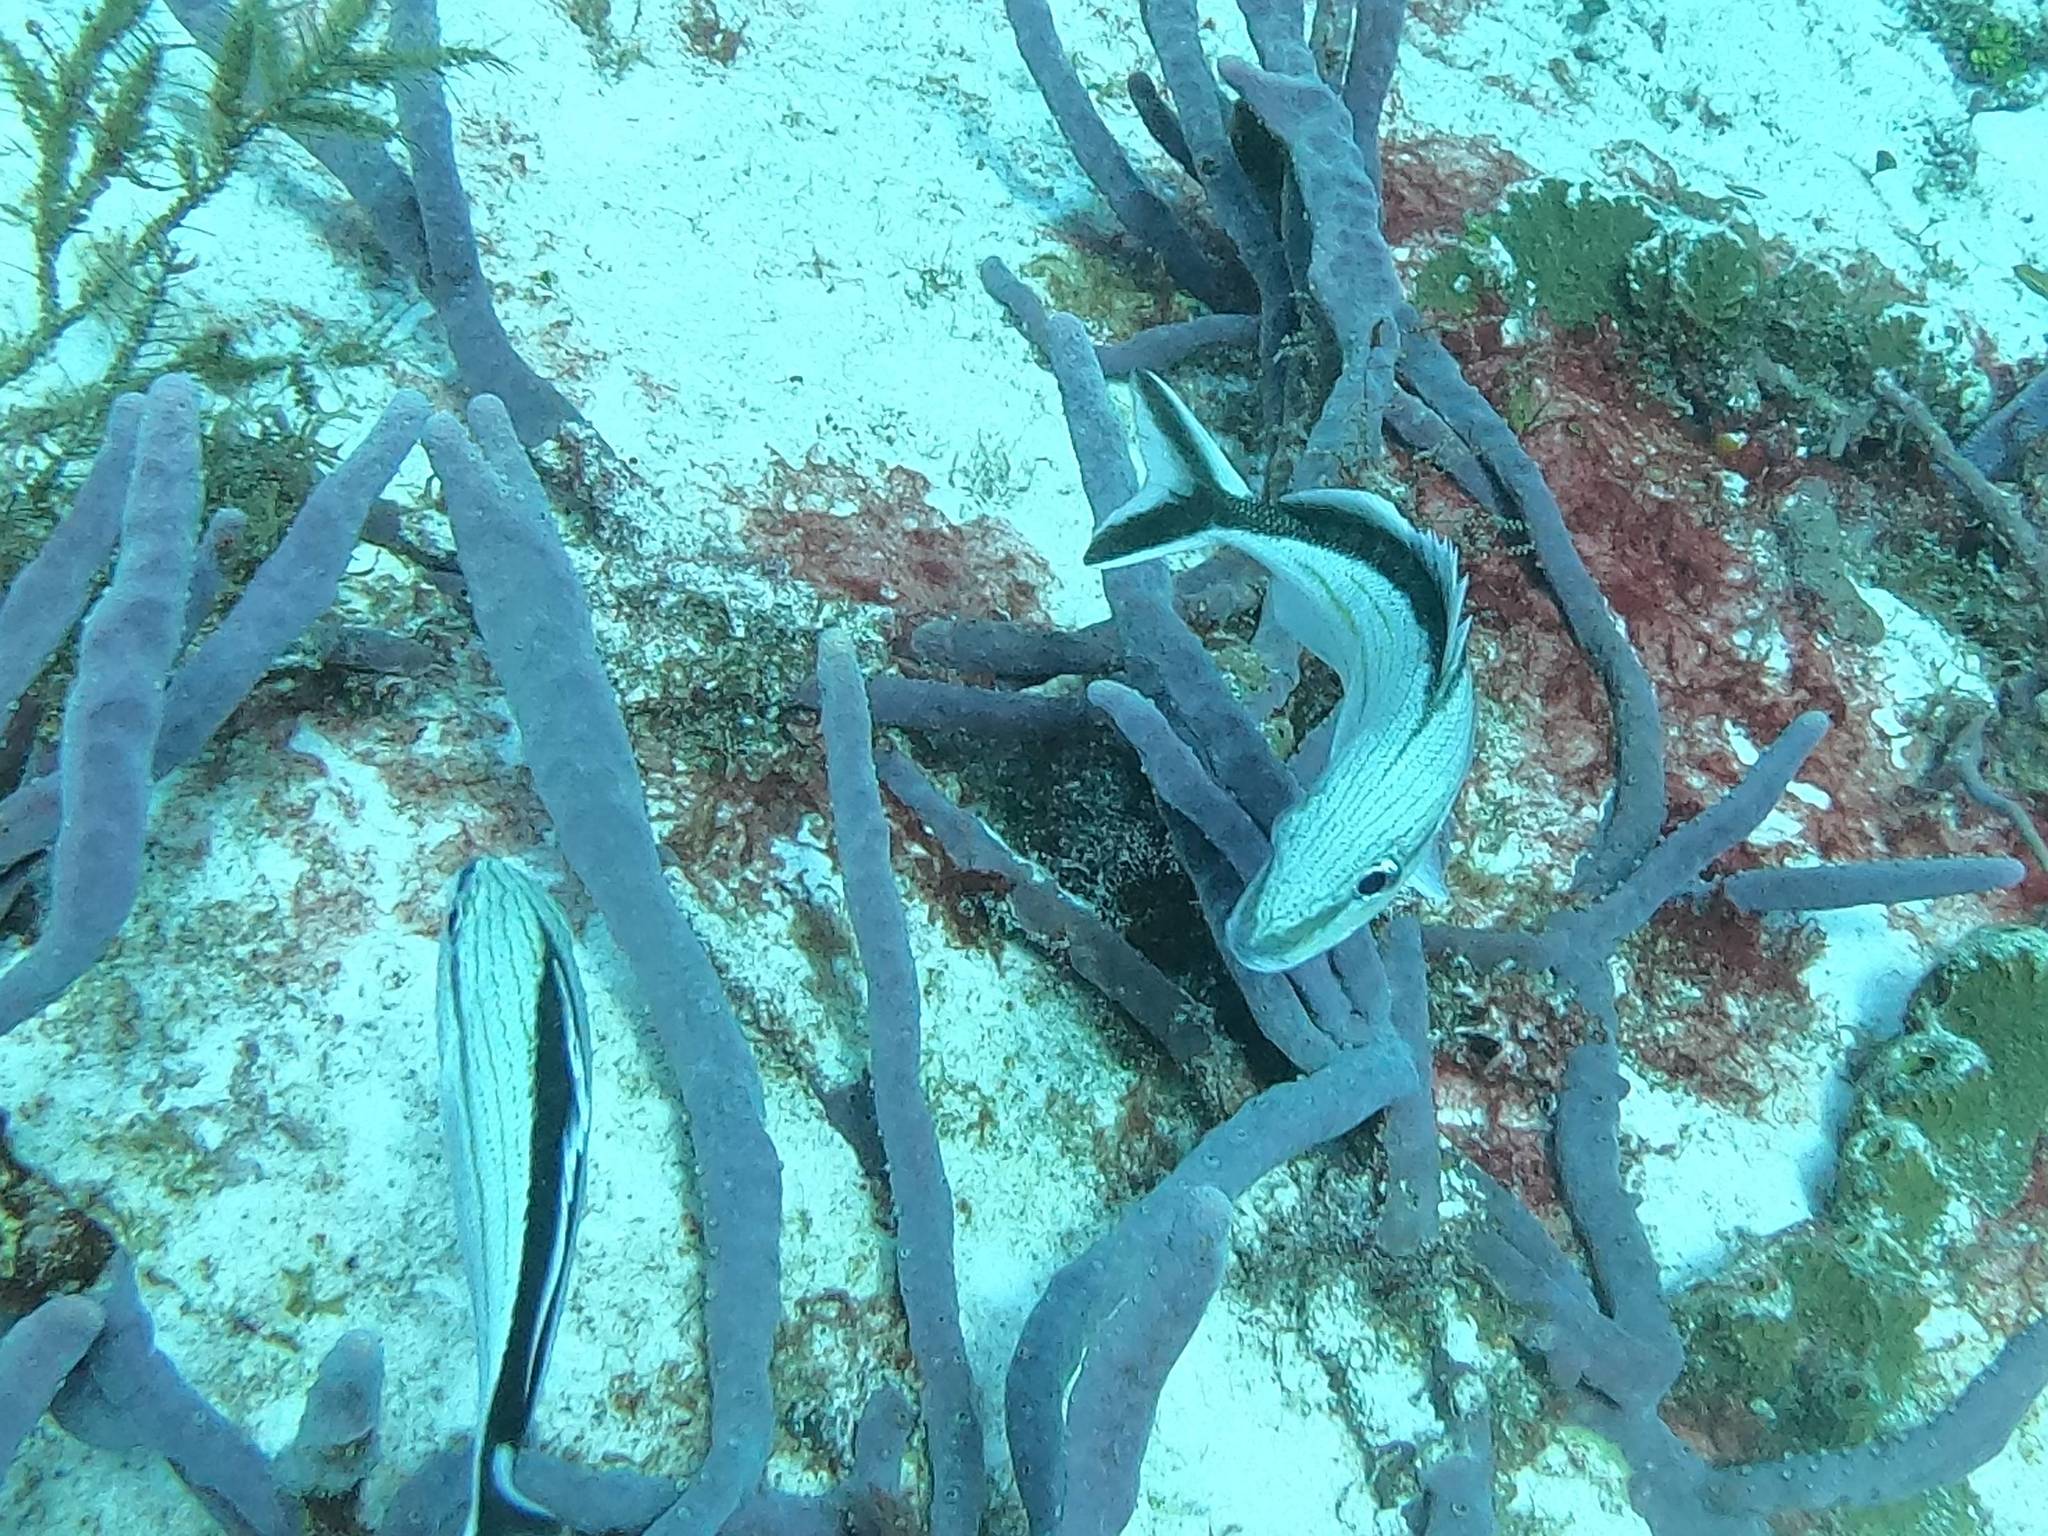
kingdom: Animalia
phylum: Chordata
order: Perciformes
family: Haemulidae
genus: Haemulon
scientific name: Haemulon melanurum
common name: Cottonwick
